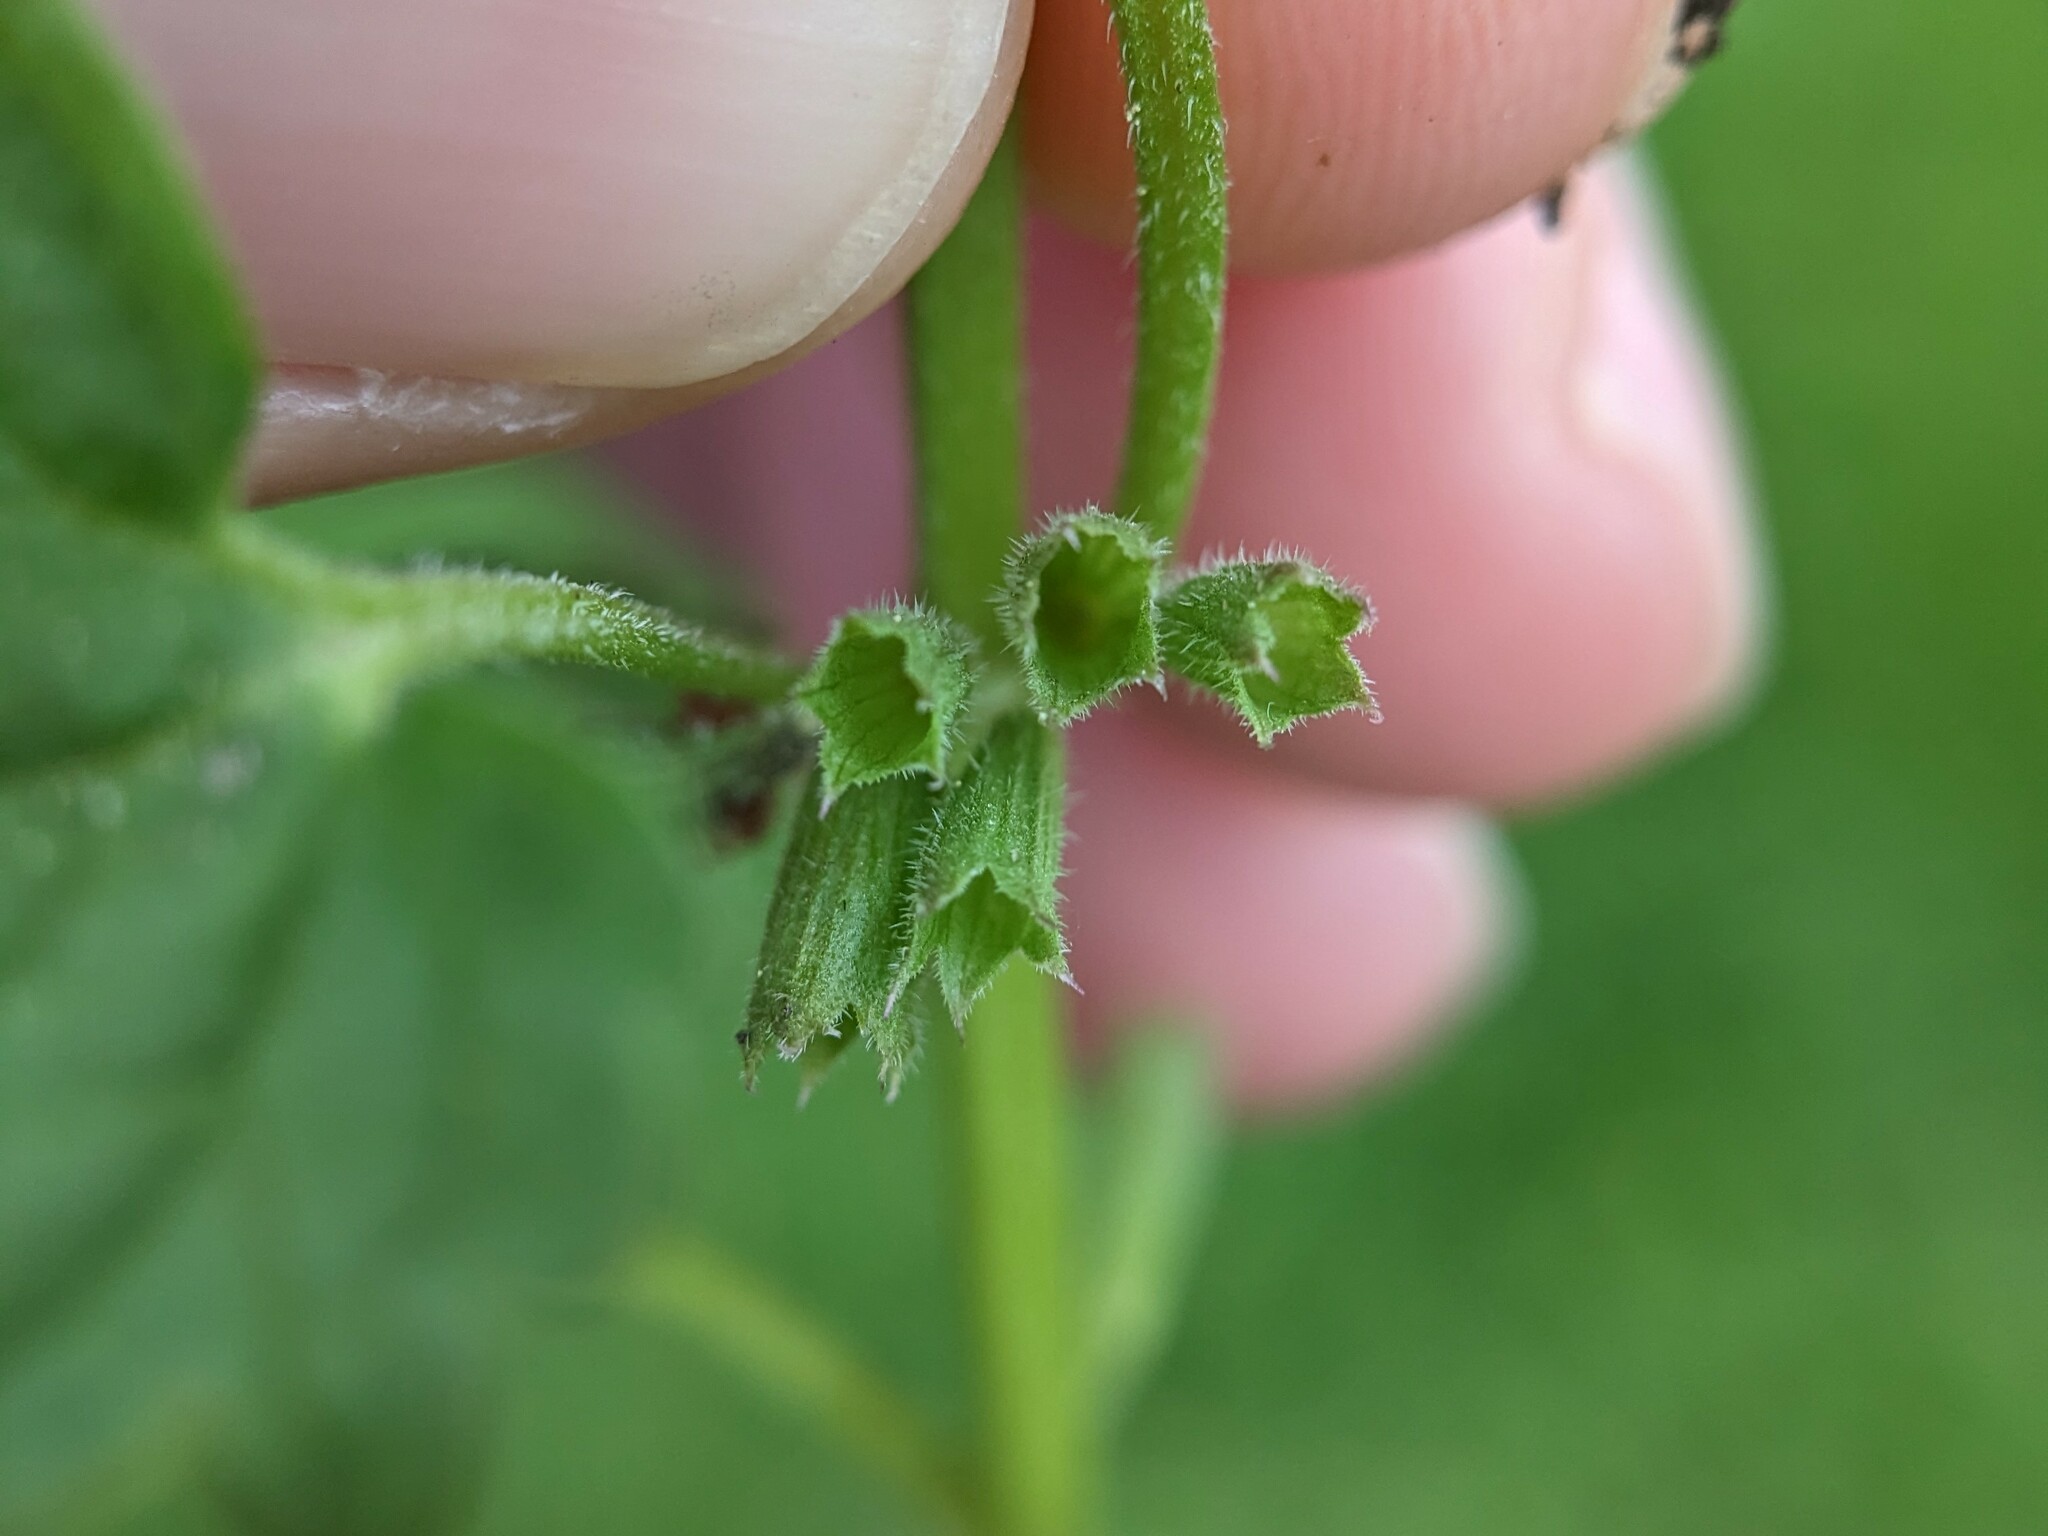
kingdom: Plantae
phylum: Tracheophyta
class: Magnoliopsida
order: Lamiales
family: Lamiaceae
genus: Glechoma
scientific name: Glechoma hederacea
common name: Ground ivy
